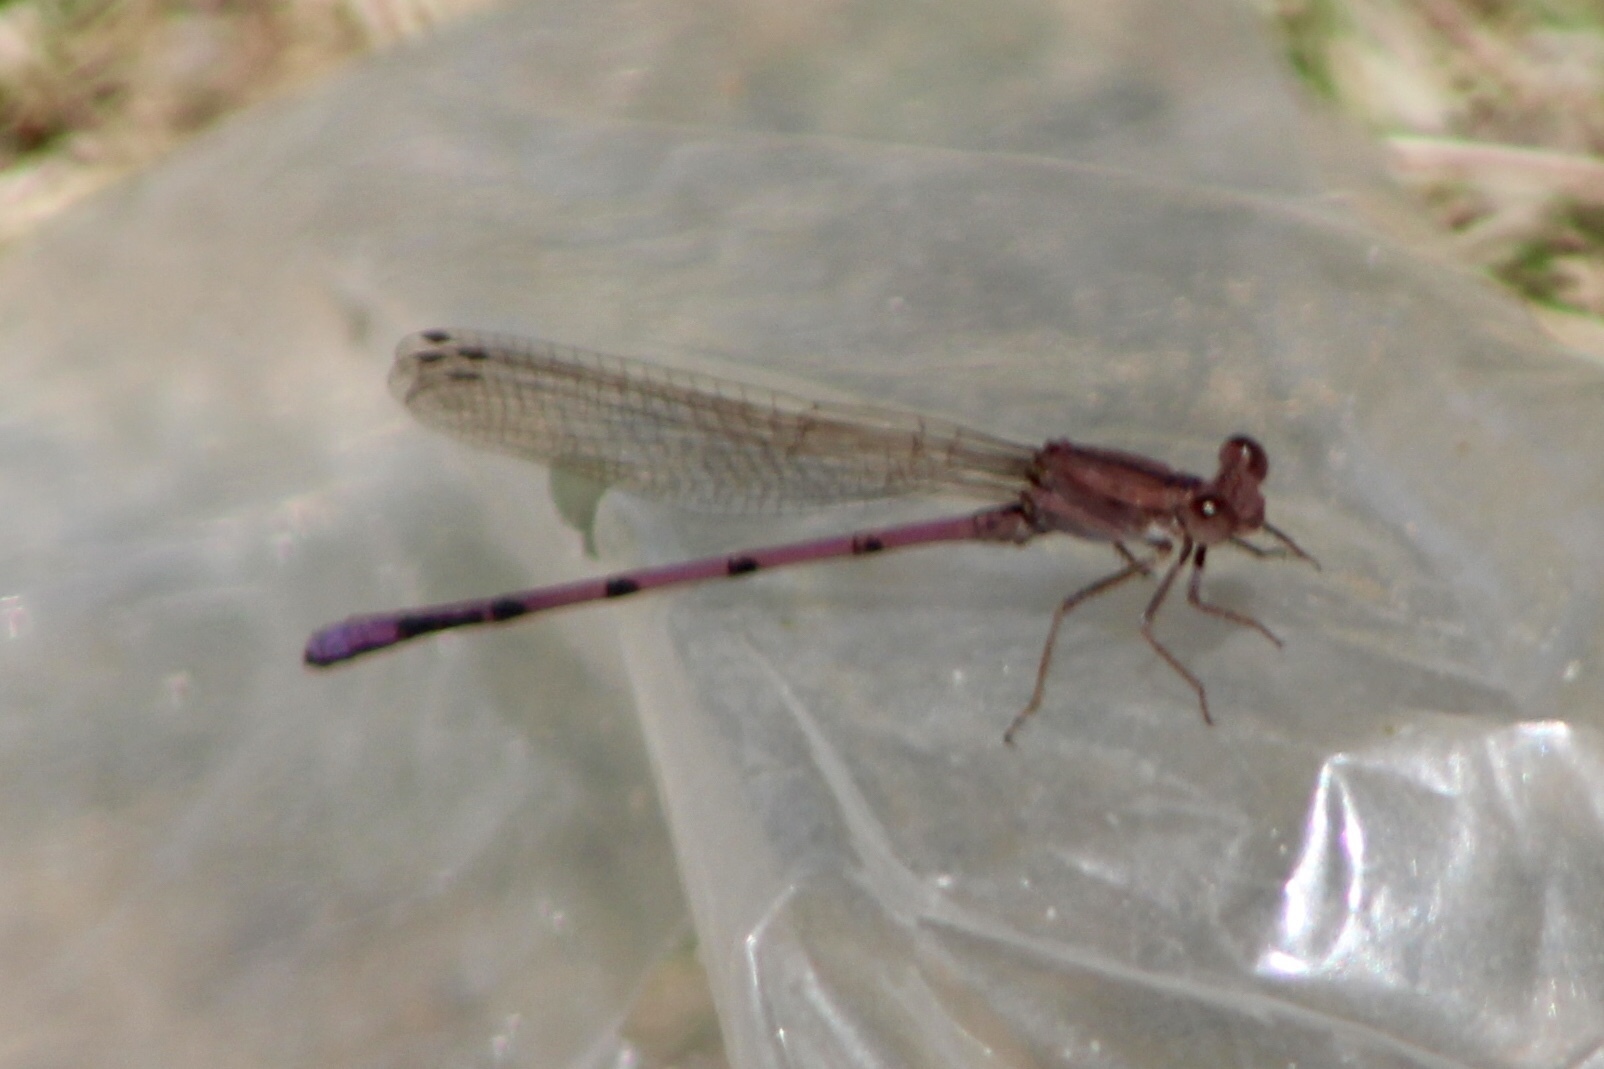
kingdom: Animalia
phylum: Arthropoda
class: Insecta
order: Odonata
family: Coenagrionidae
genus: Argia
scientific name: Argia pallens
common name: Amethyst dancer
